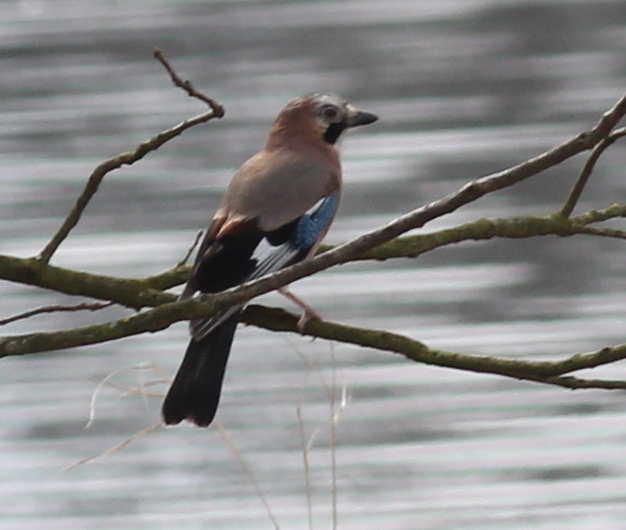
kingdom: Animalia
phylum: Chordata
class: Aves
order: Passeriformes
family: Corvidae
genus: Garrulus
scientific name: Garrulus glandarius
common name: Eurasian jay
